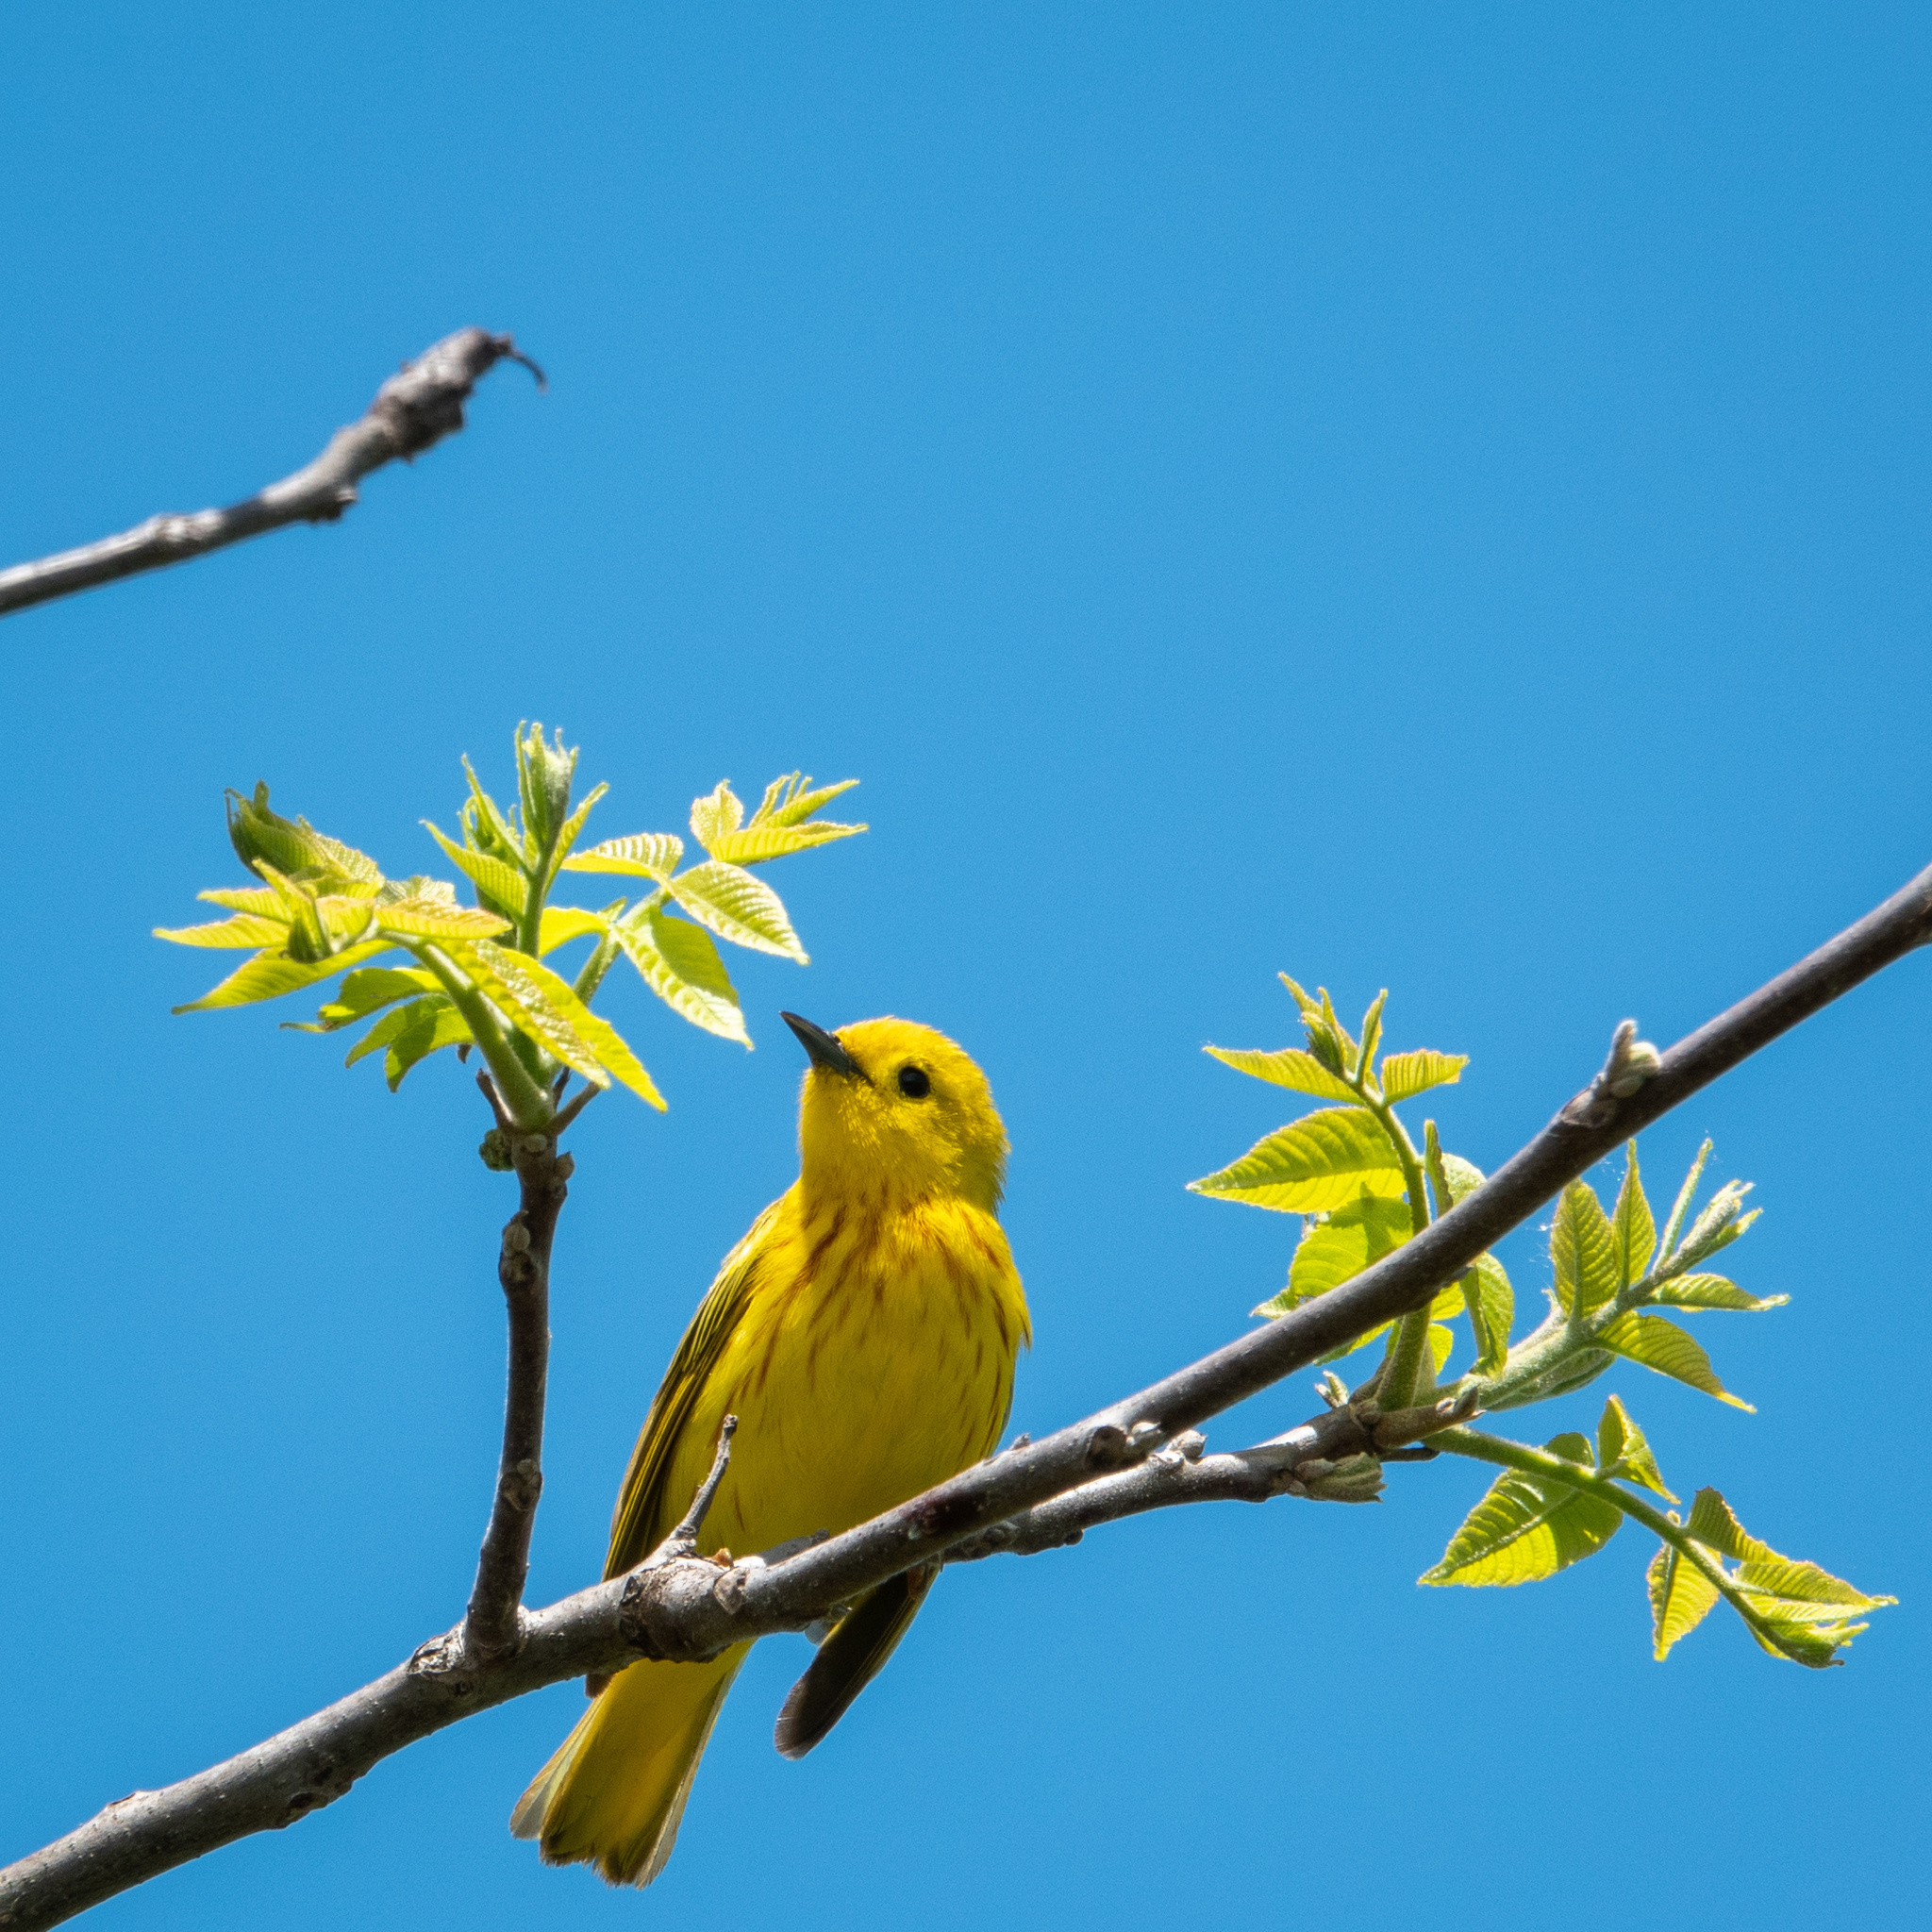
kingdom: Animalia
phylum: Chordata
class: Aves
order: Passeriformes
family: Parulidae
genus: Setophaga
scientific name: Setophaga petechia
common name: Yellow warbler
